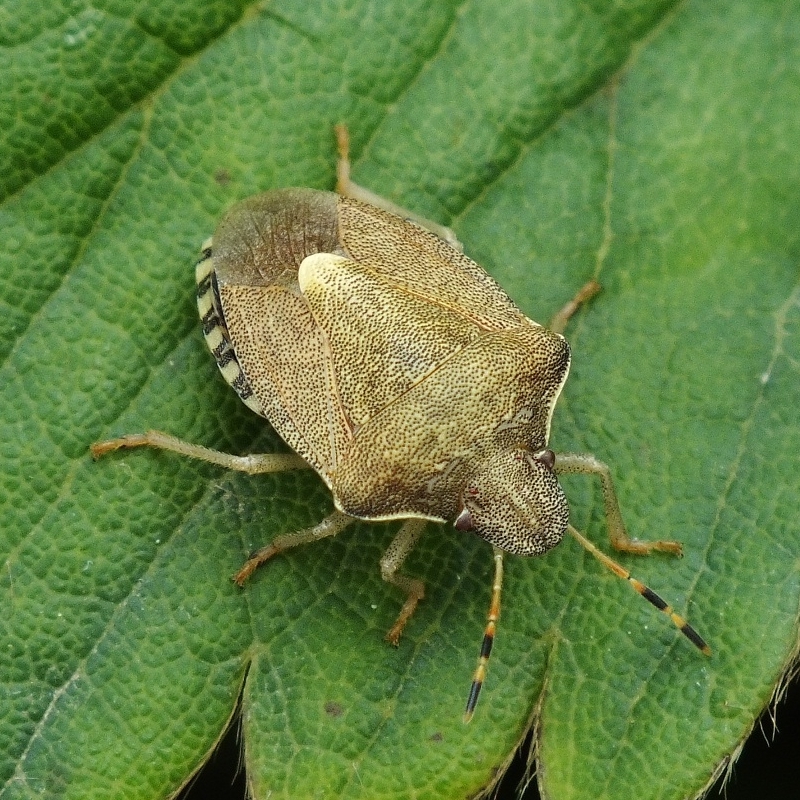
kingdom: Animalia
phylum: Arthropoda
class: Insecta
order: Hemiptera
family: Pentatomidae
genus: Holcostethus
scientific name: Holcostethus strictus
